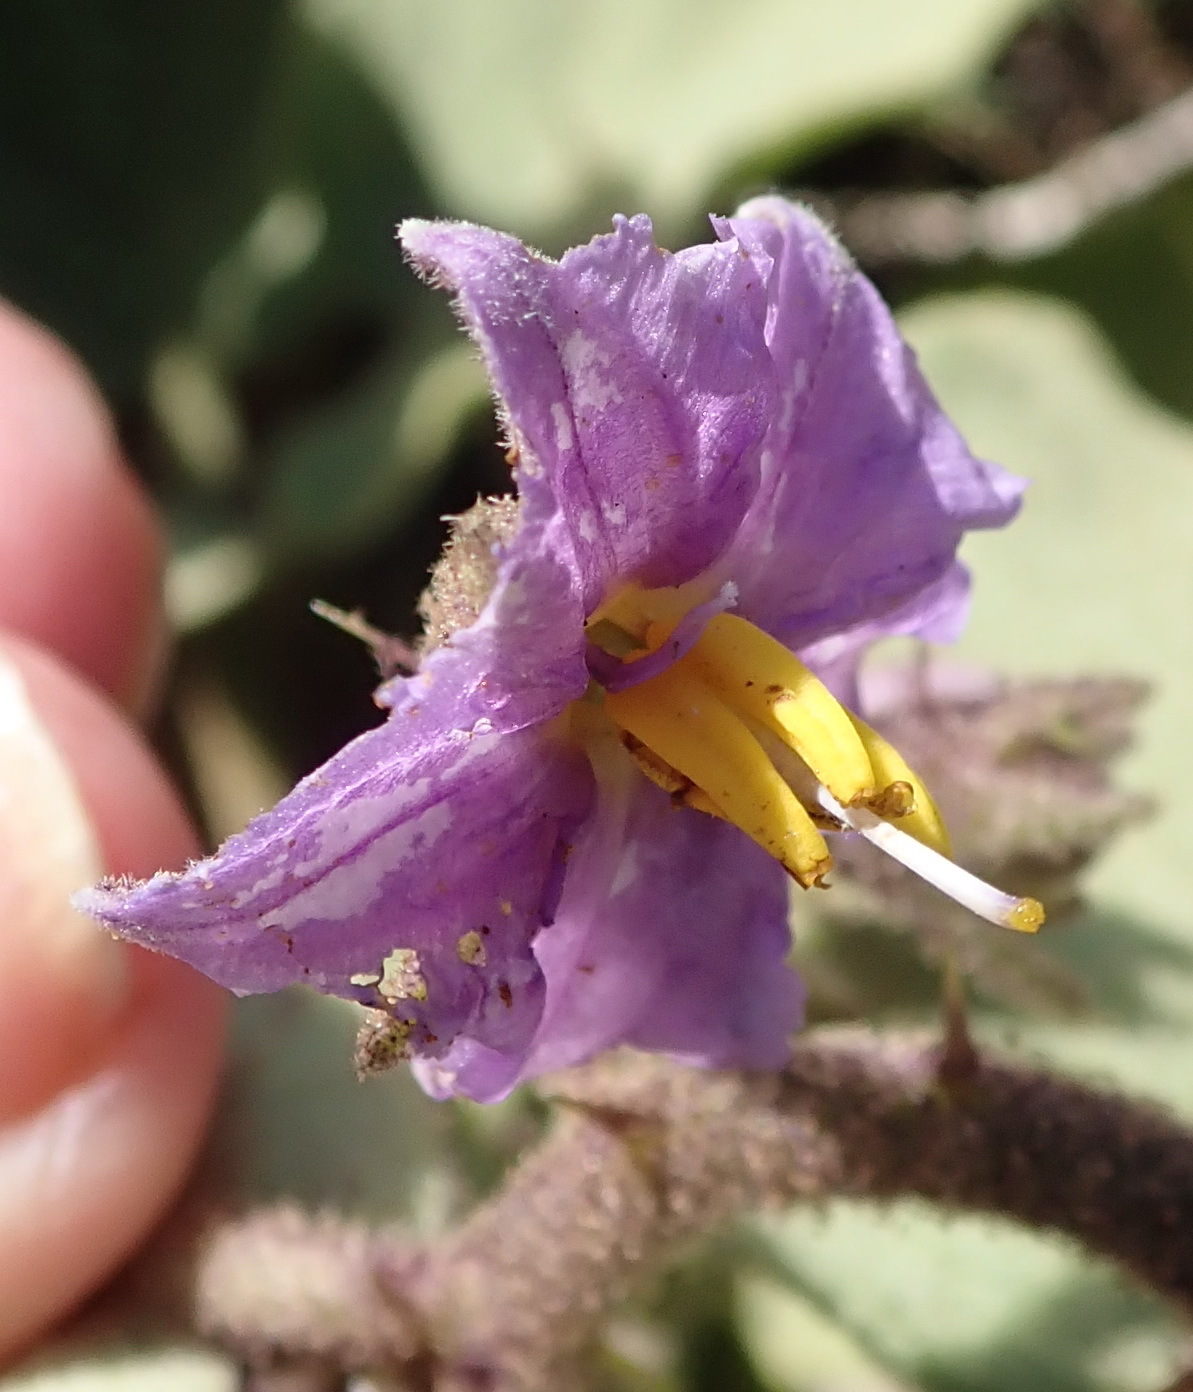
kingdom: Plantae
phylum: Tracheophyta
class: Magnoliopsida
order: Solanales
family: Solanaceae
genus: Solanum
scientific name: Solanum tomentosum
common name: Wild aubergine
